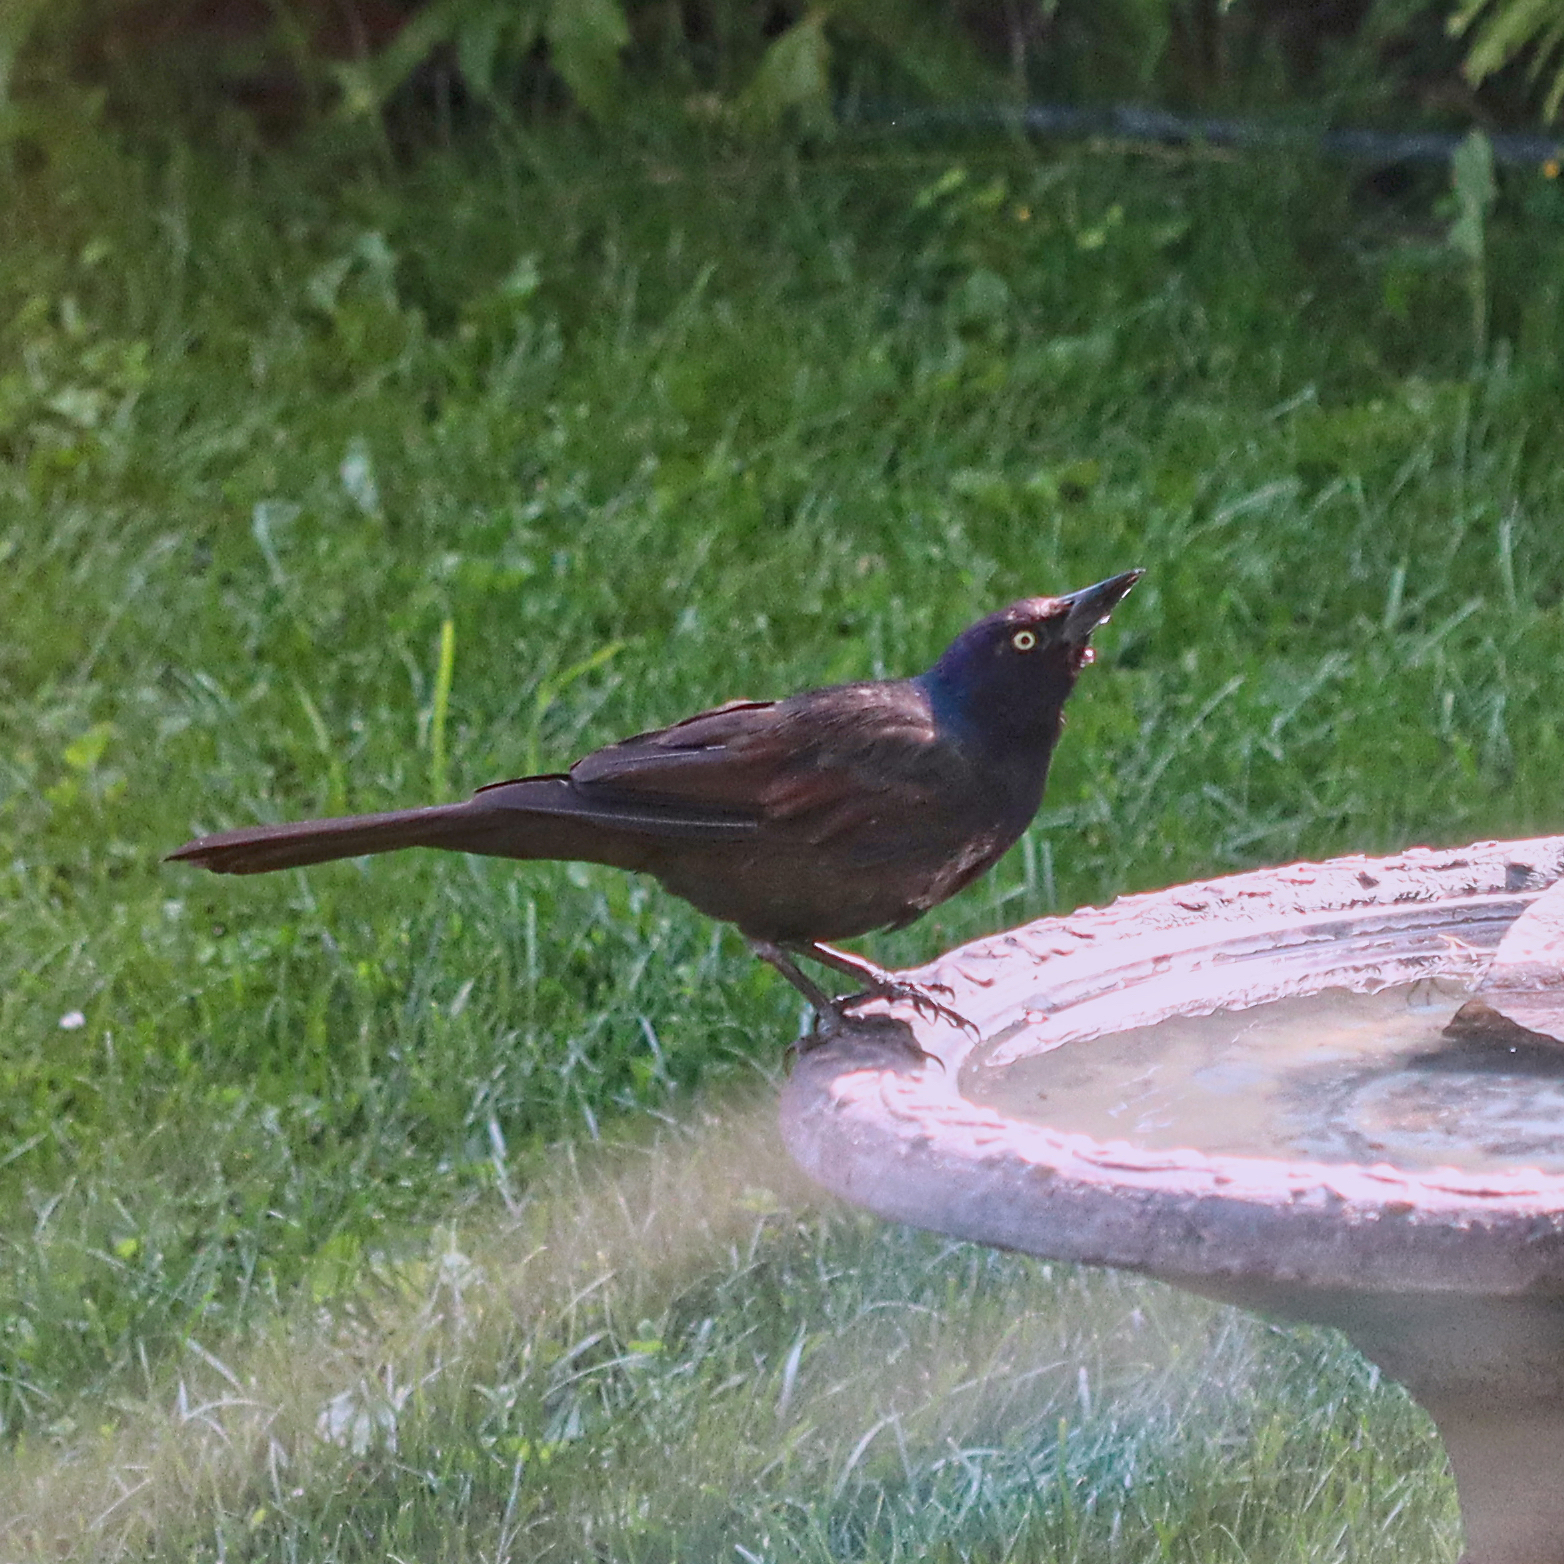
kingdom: Animalia
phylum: Chordata
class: Aves
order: Passeriformes
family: Icteridae
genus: Quiscalus
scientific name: Quiscalus quiscula
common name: Common grackle
